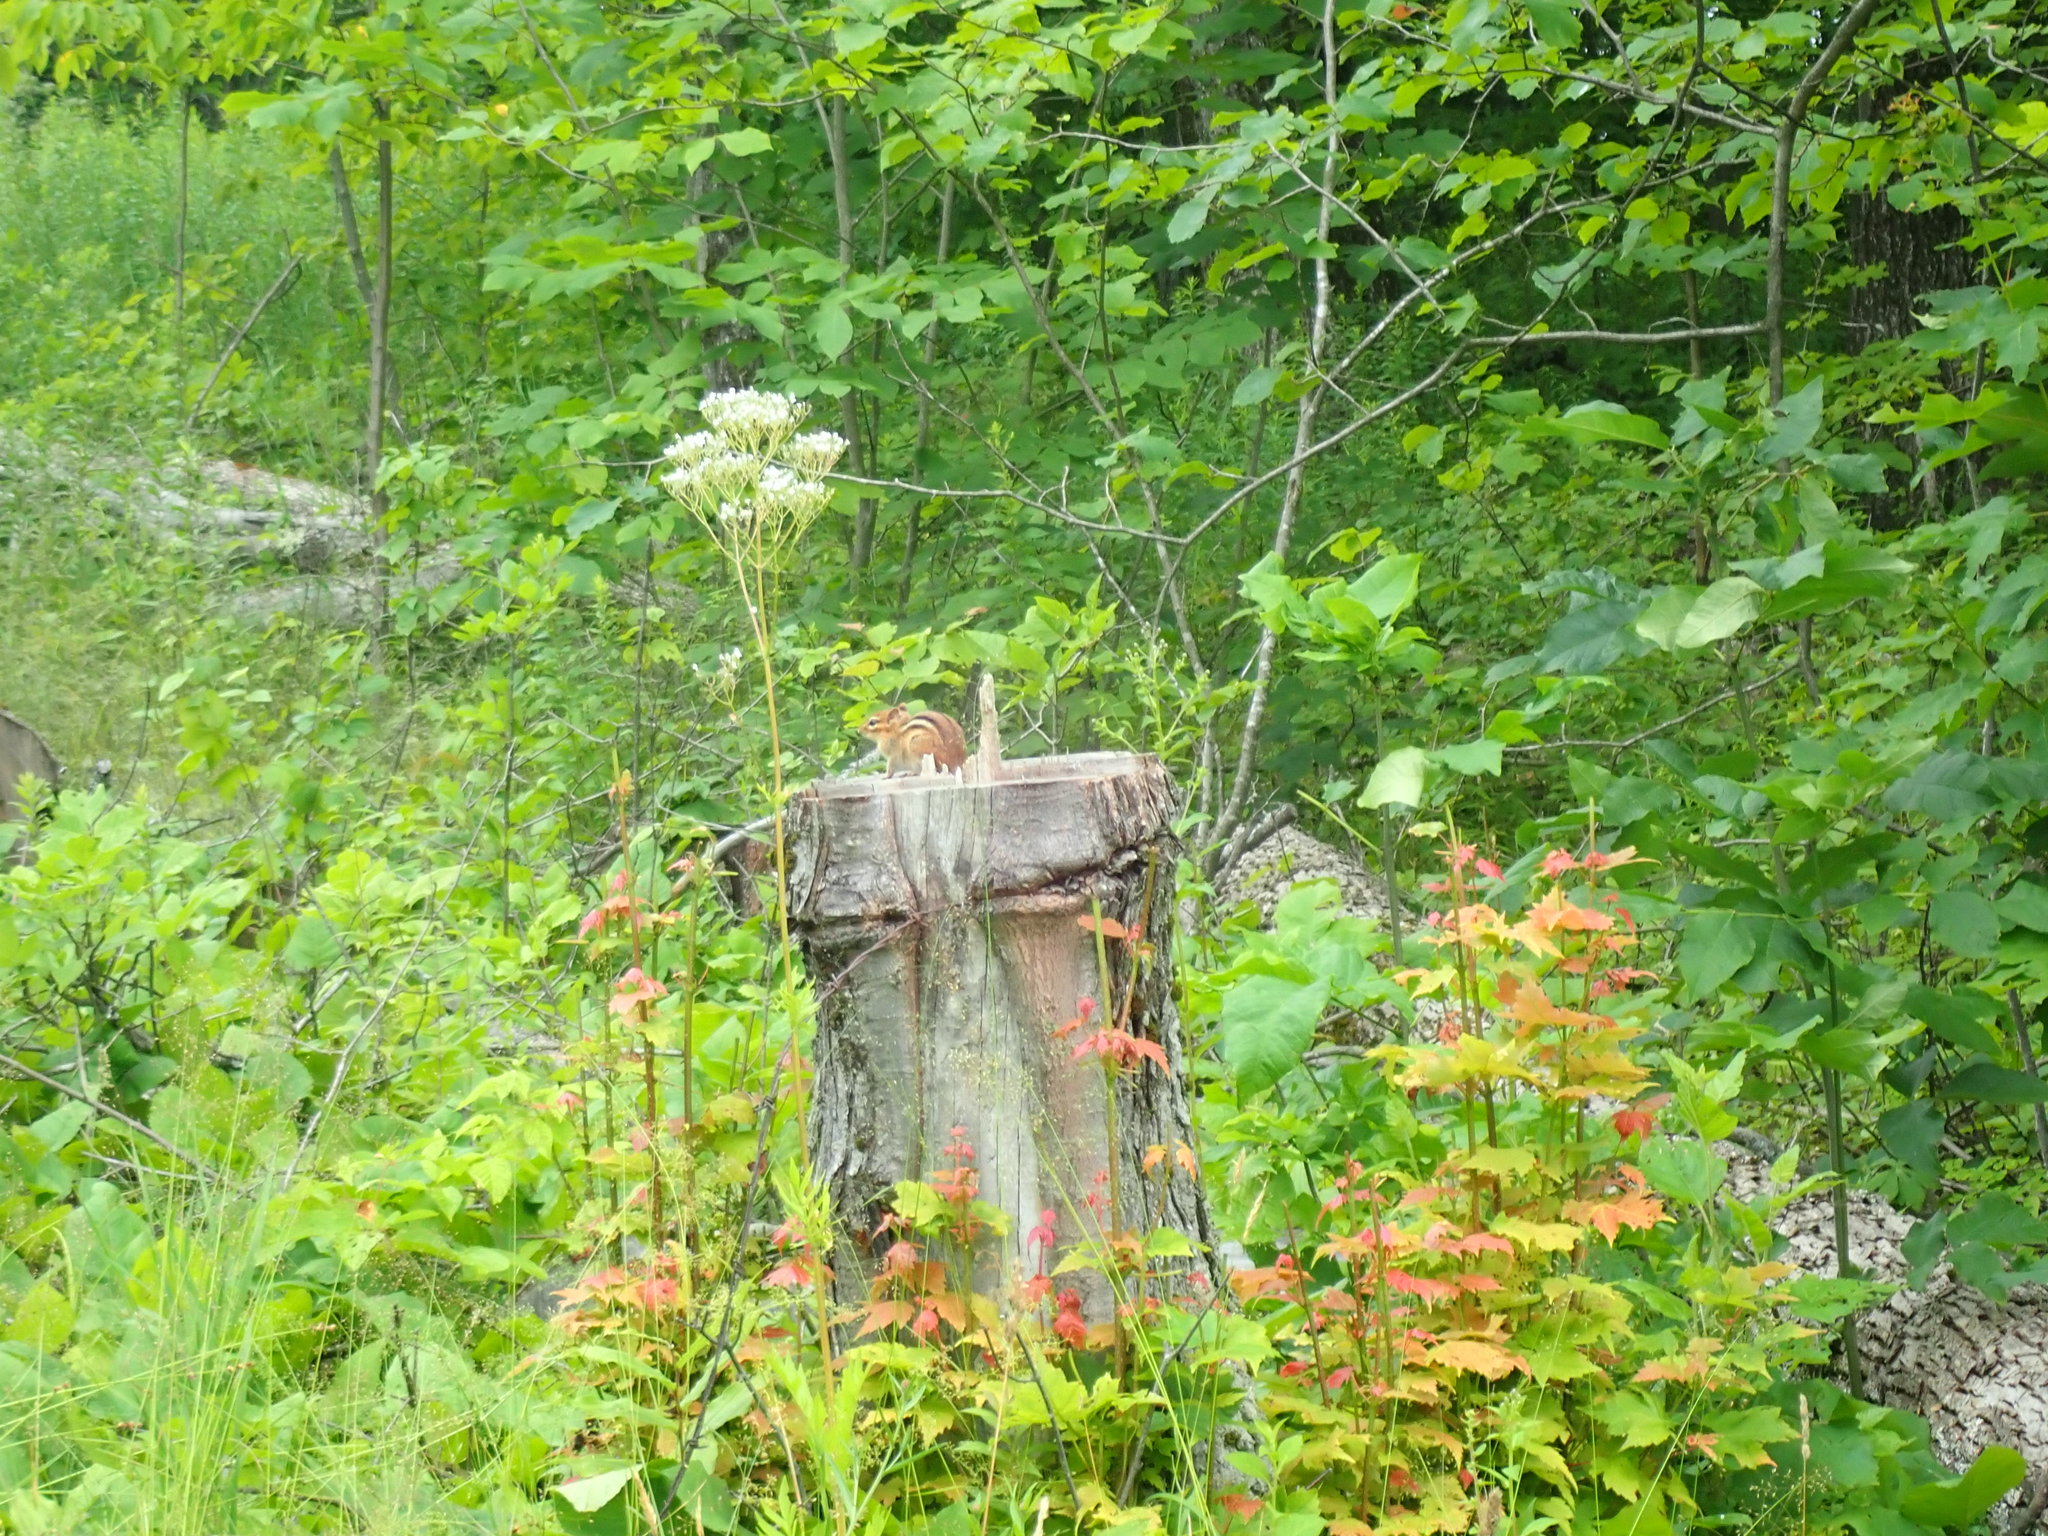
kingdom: Animalia
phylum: Chordata
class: Mammalia
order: Rodentia
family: Sciuridae
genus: Tamias
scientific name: Tamias striatus
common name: Eastern chipmunk
